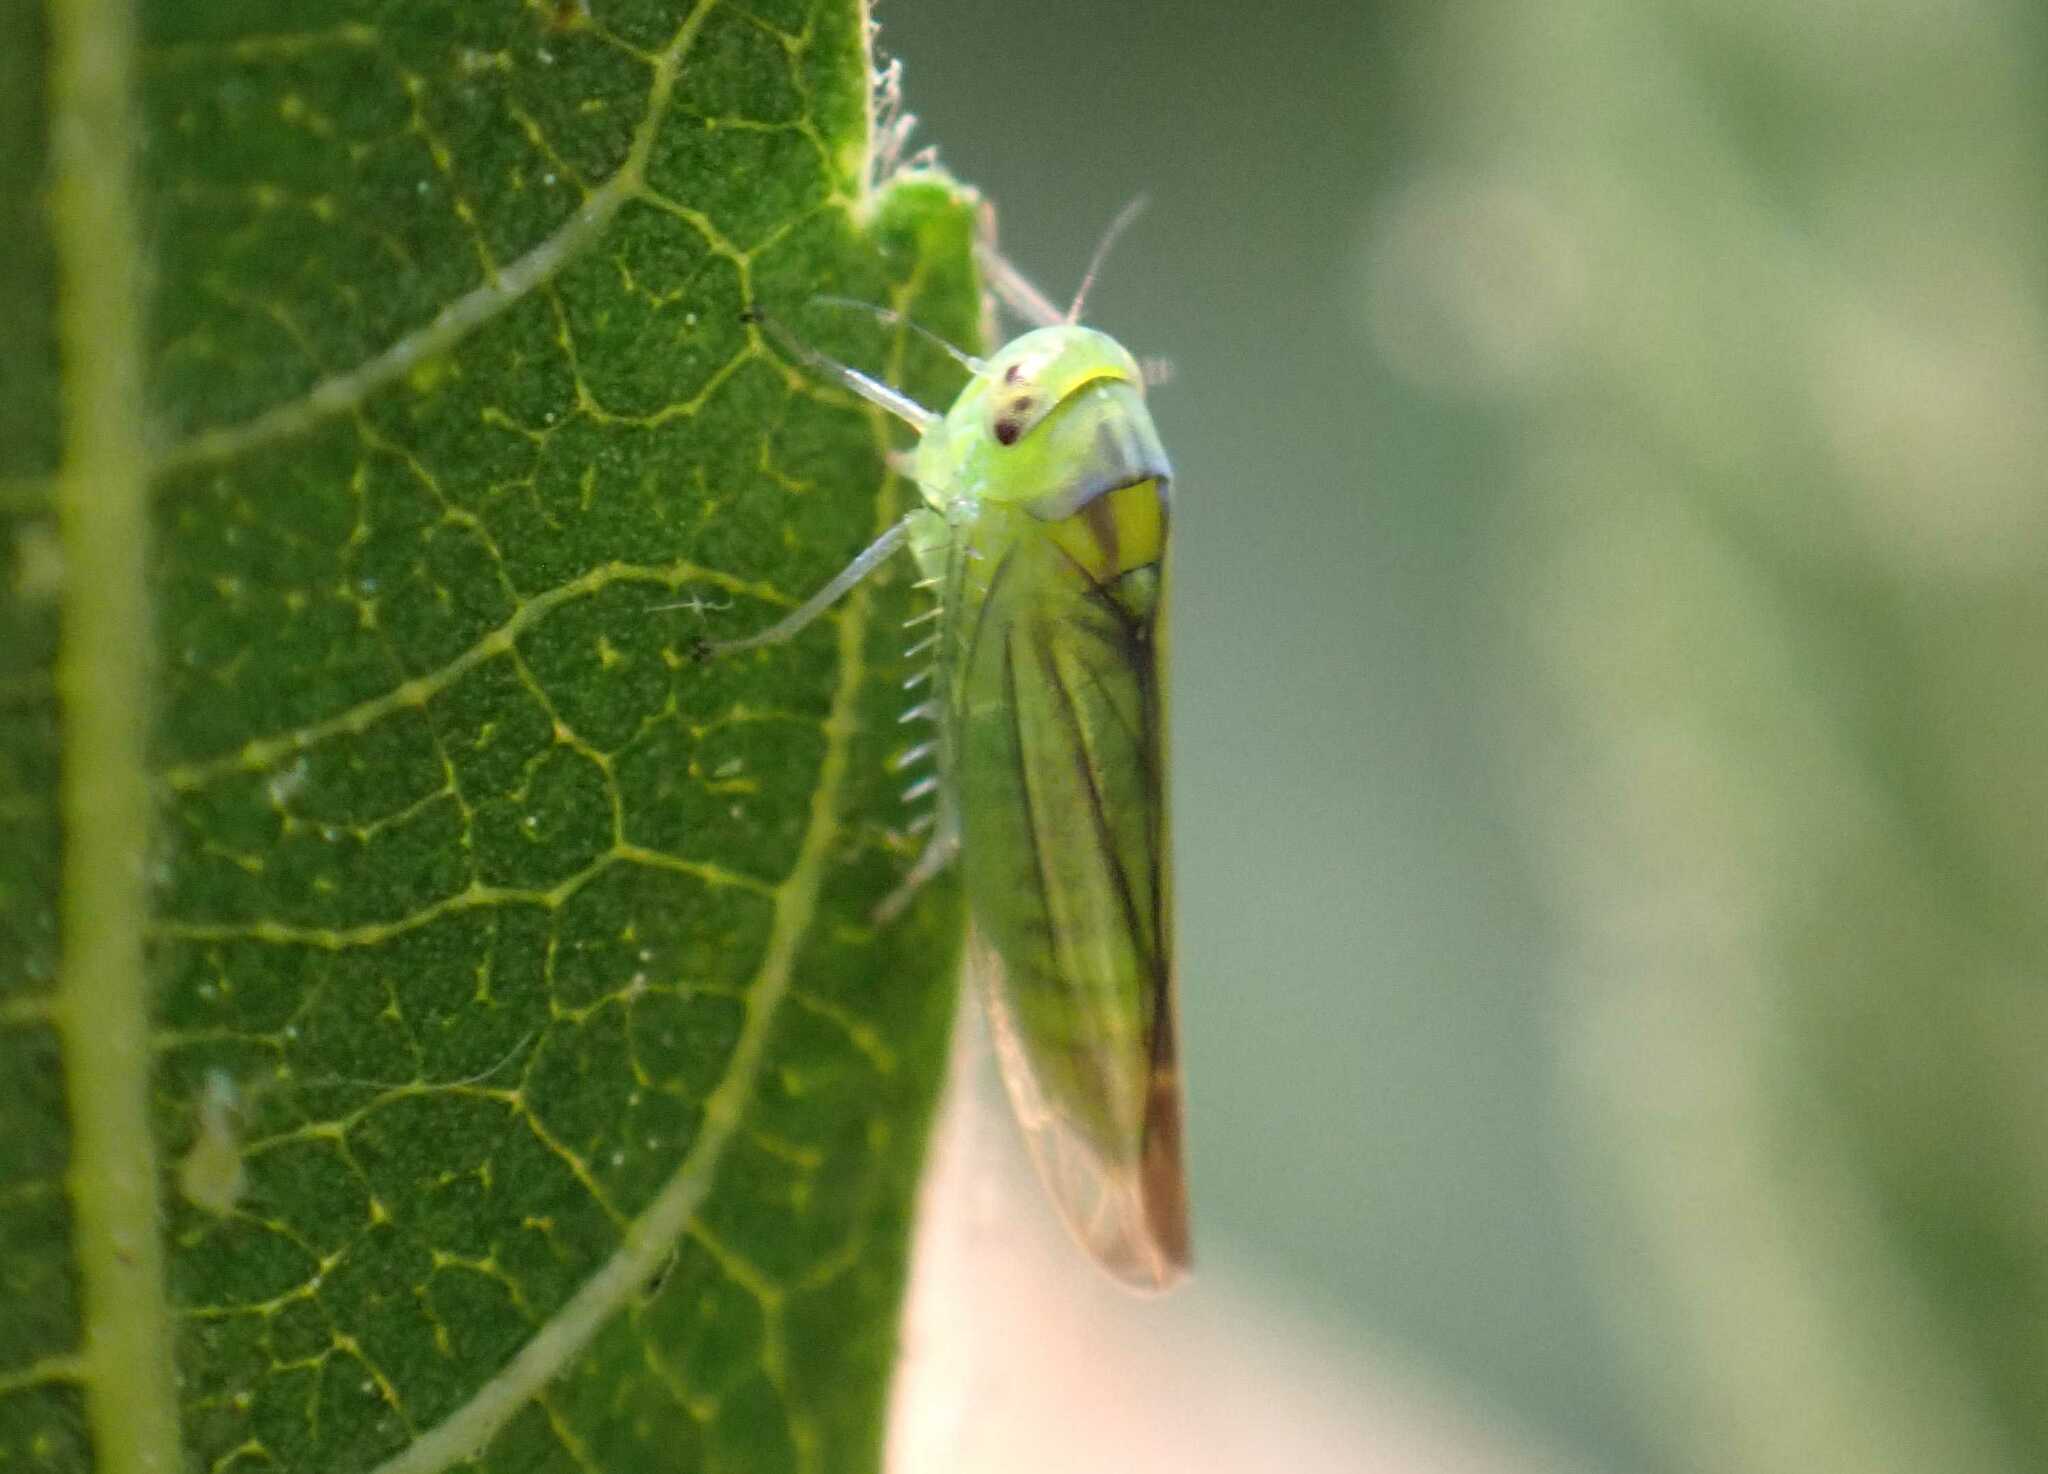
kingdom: Animalia
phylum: Arthropoda
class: Insecta
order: Hemiptera
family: Cicadellidae
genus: Kybos
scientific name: Kybos smaragdula
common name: Leafhopper
